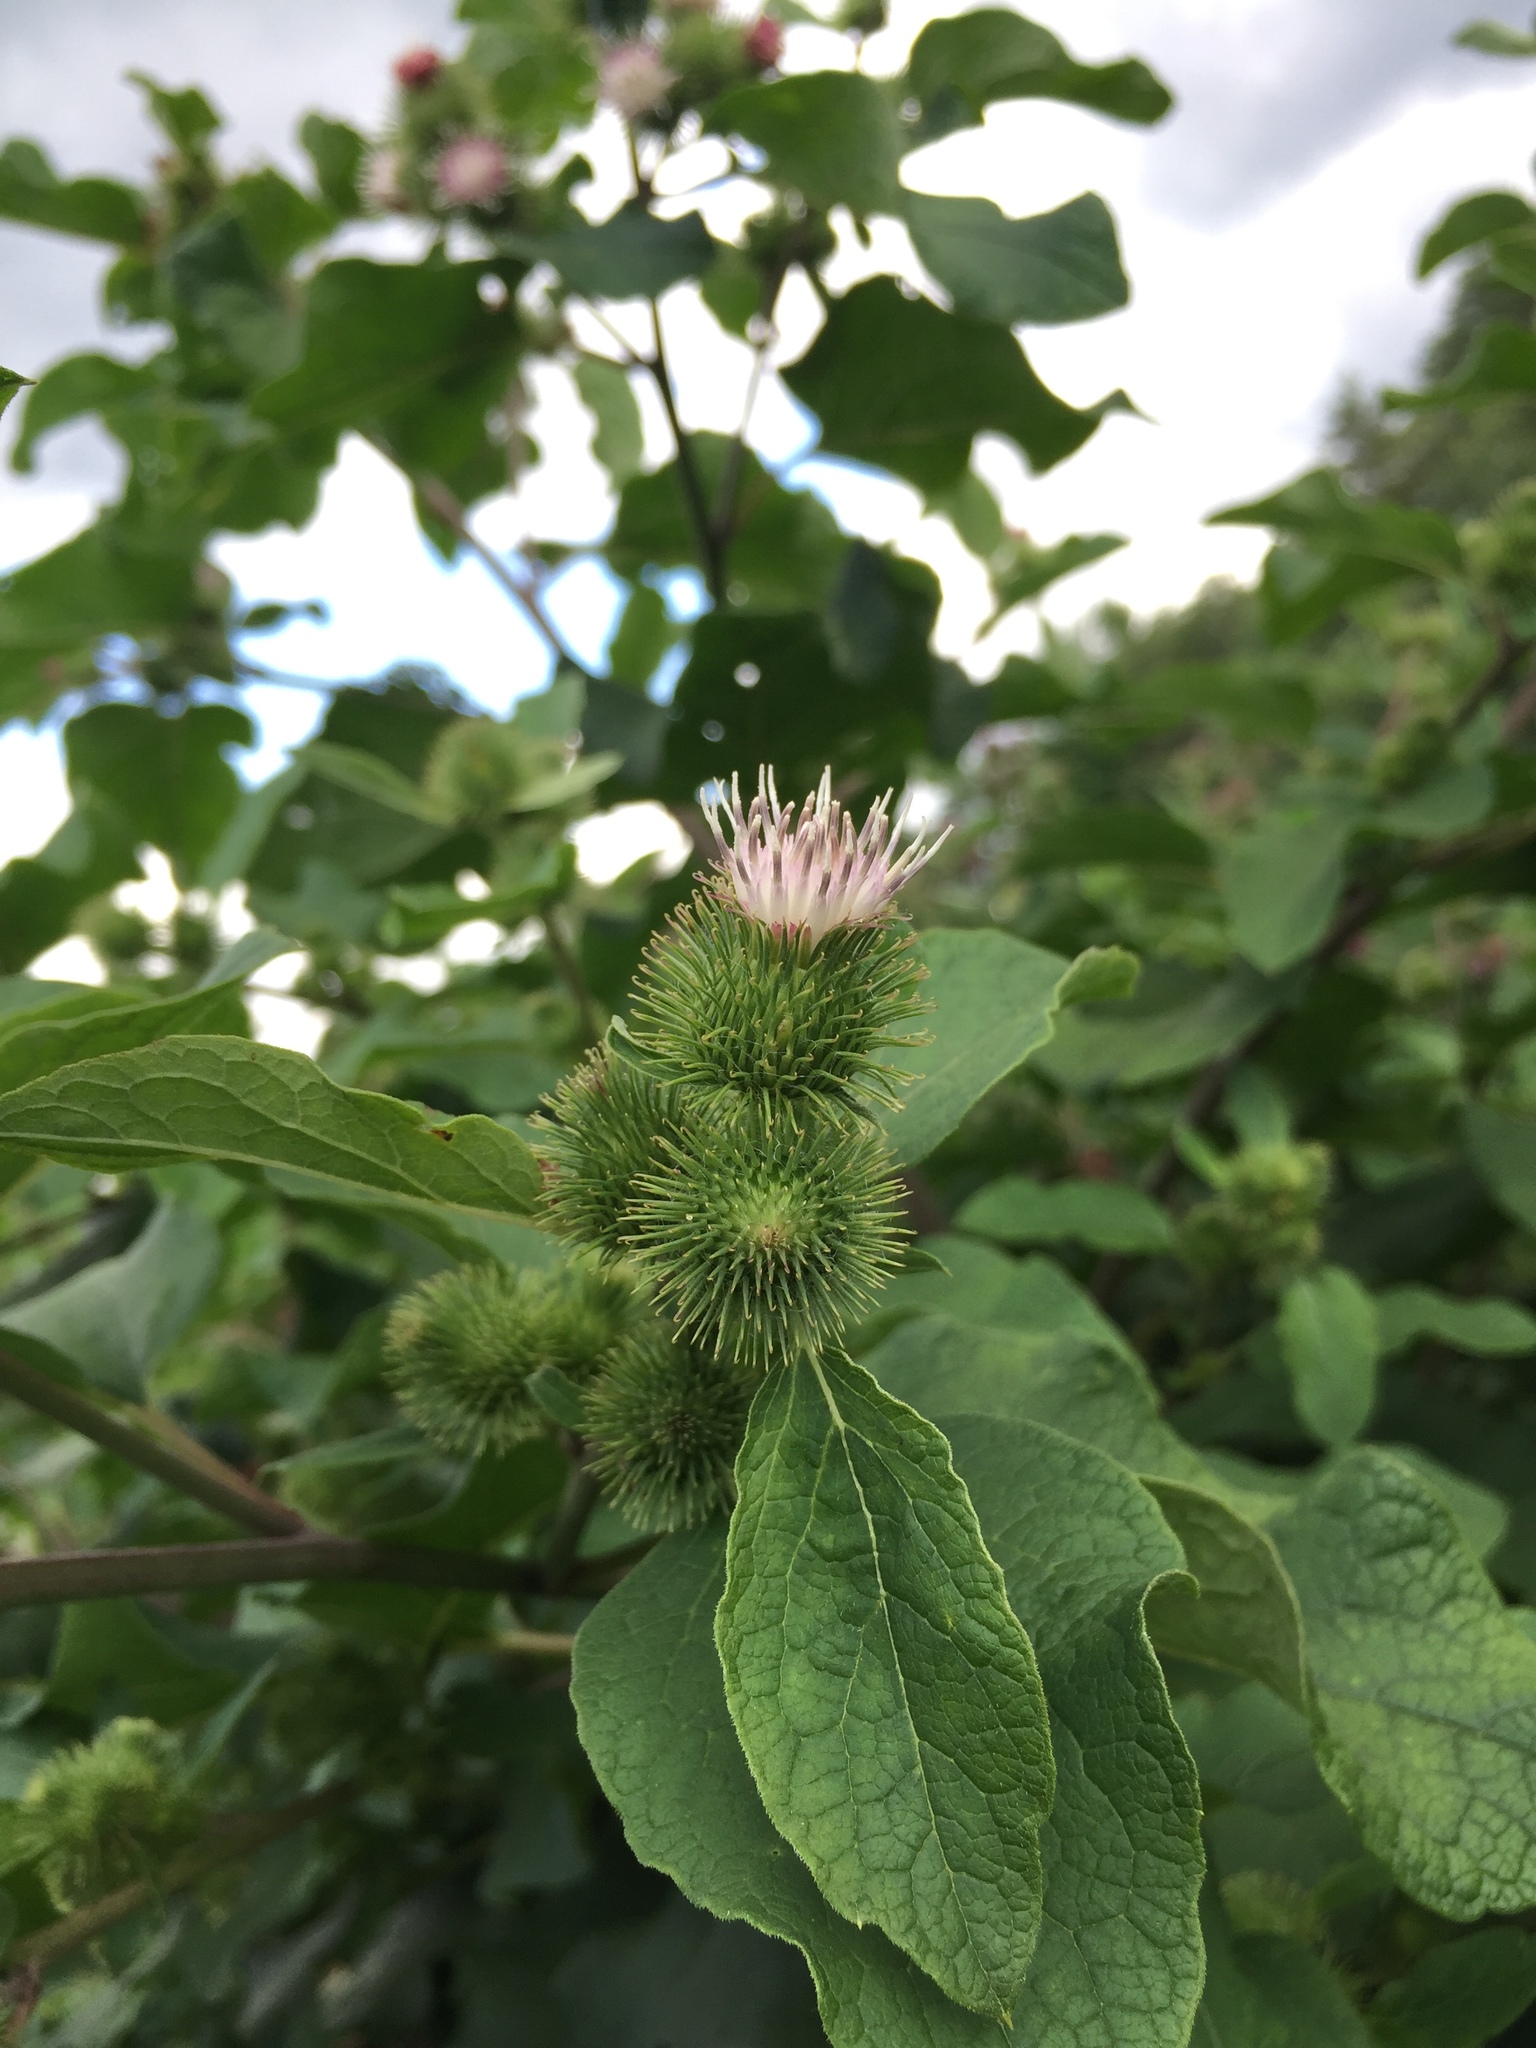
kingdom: Plantae
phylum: Tracheophyta
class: Magnoliopsida
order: Asterales
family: Asteraceae
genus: Arctium
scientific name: Arctium minus
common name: Lesser burdock
